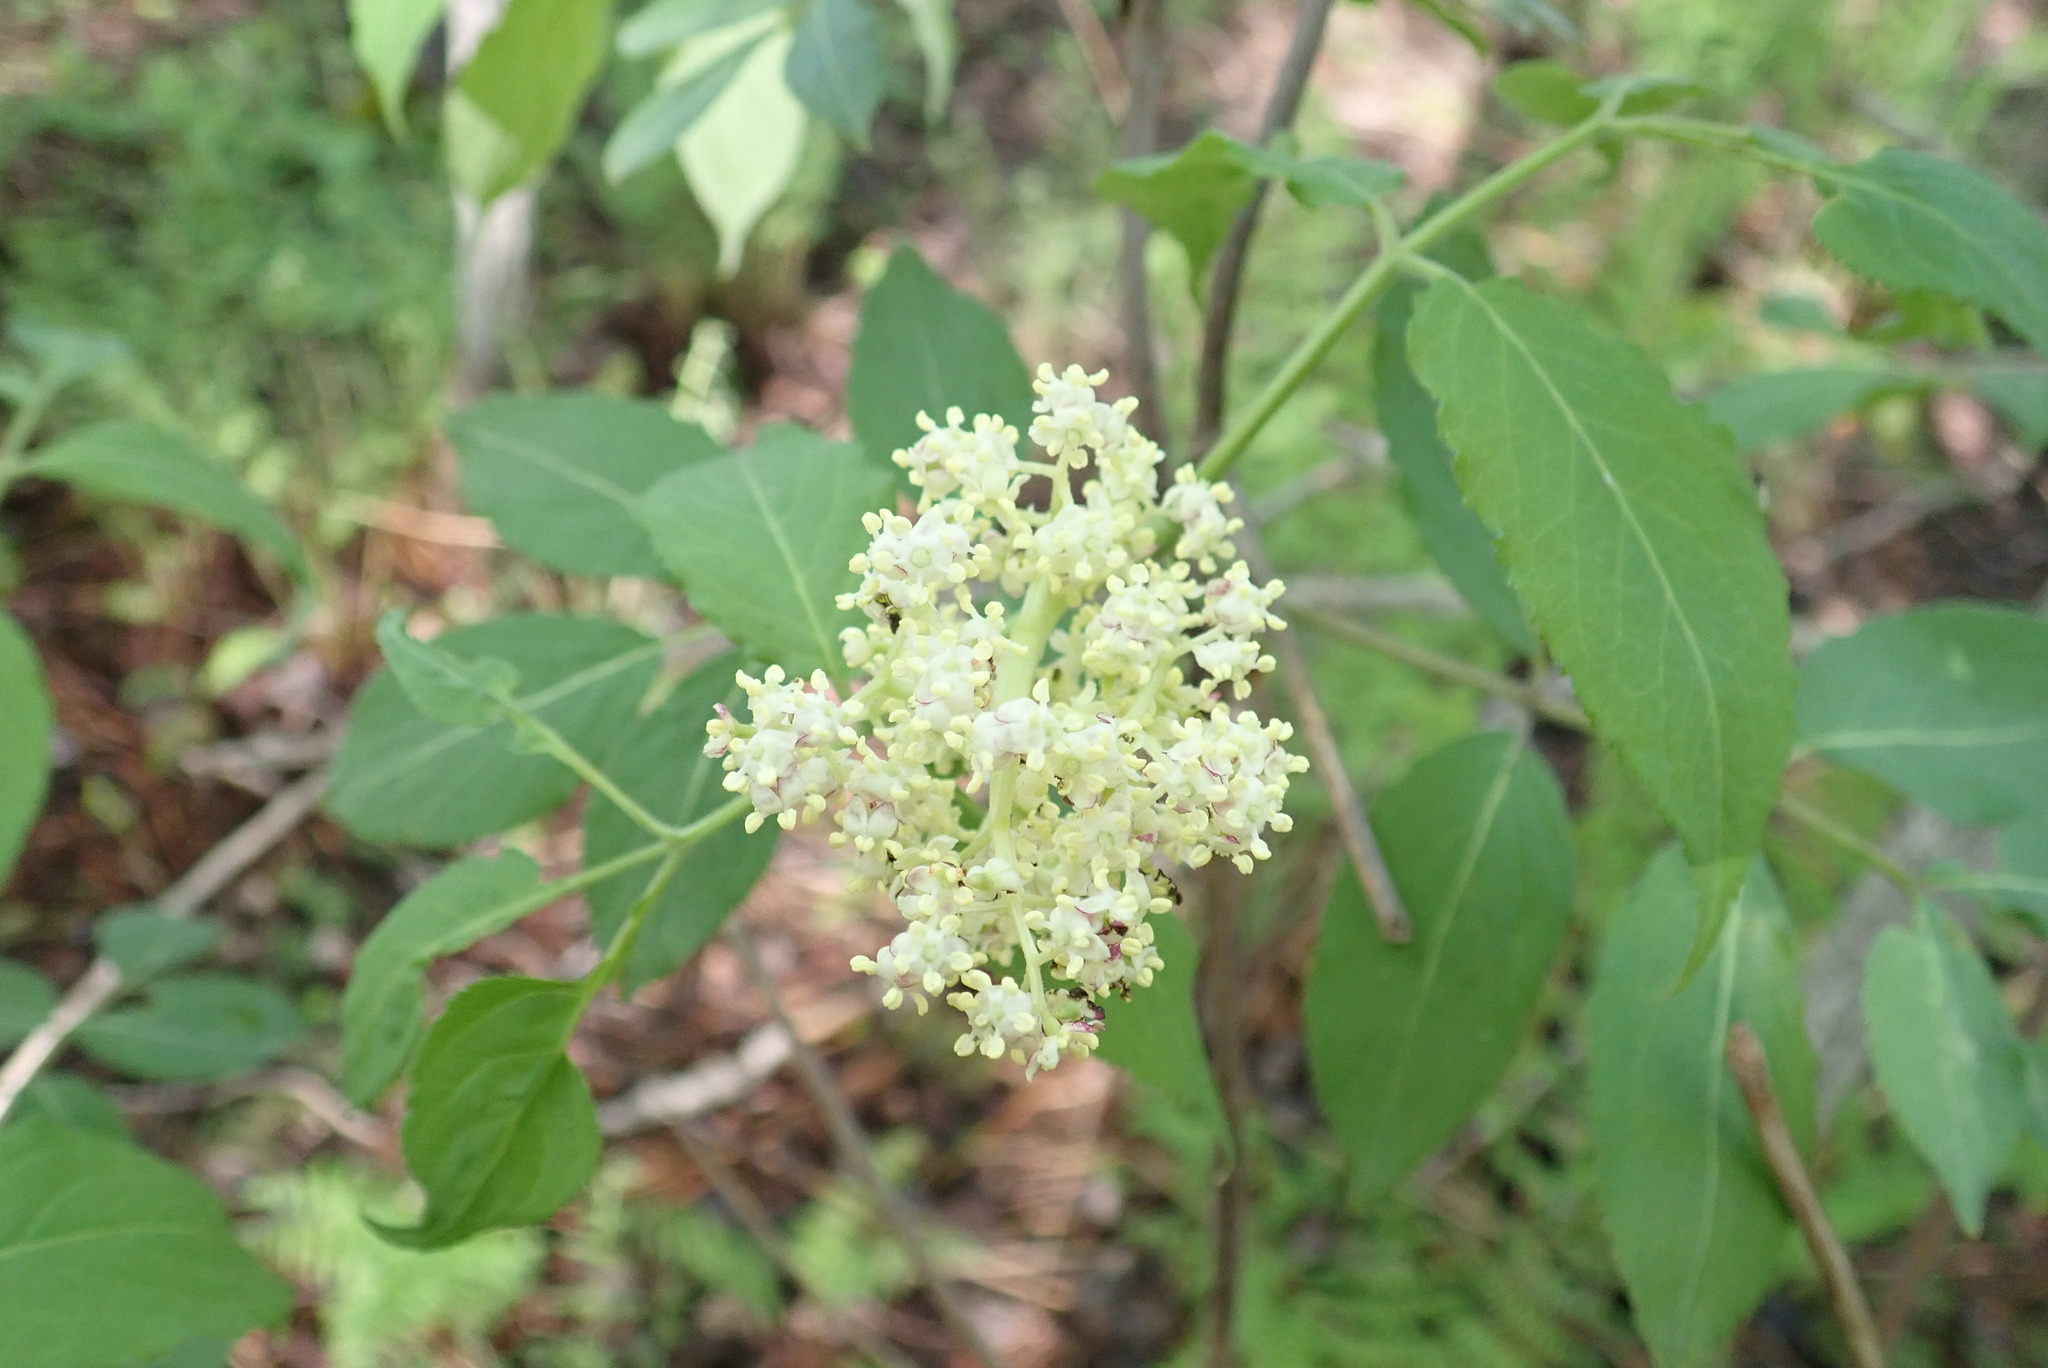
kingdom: Plantae
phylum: Tracheophyta
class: Magnoliopsida
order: Dipsacales
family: Viburnaceae
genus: Sambucus
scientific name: Sambucus racemosa
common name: Red-berried elder
